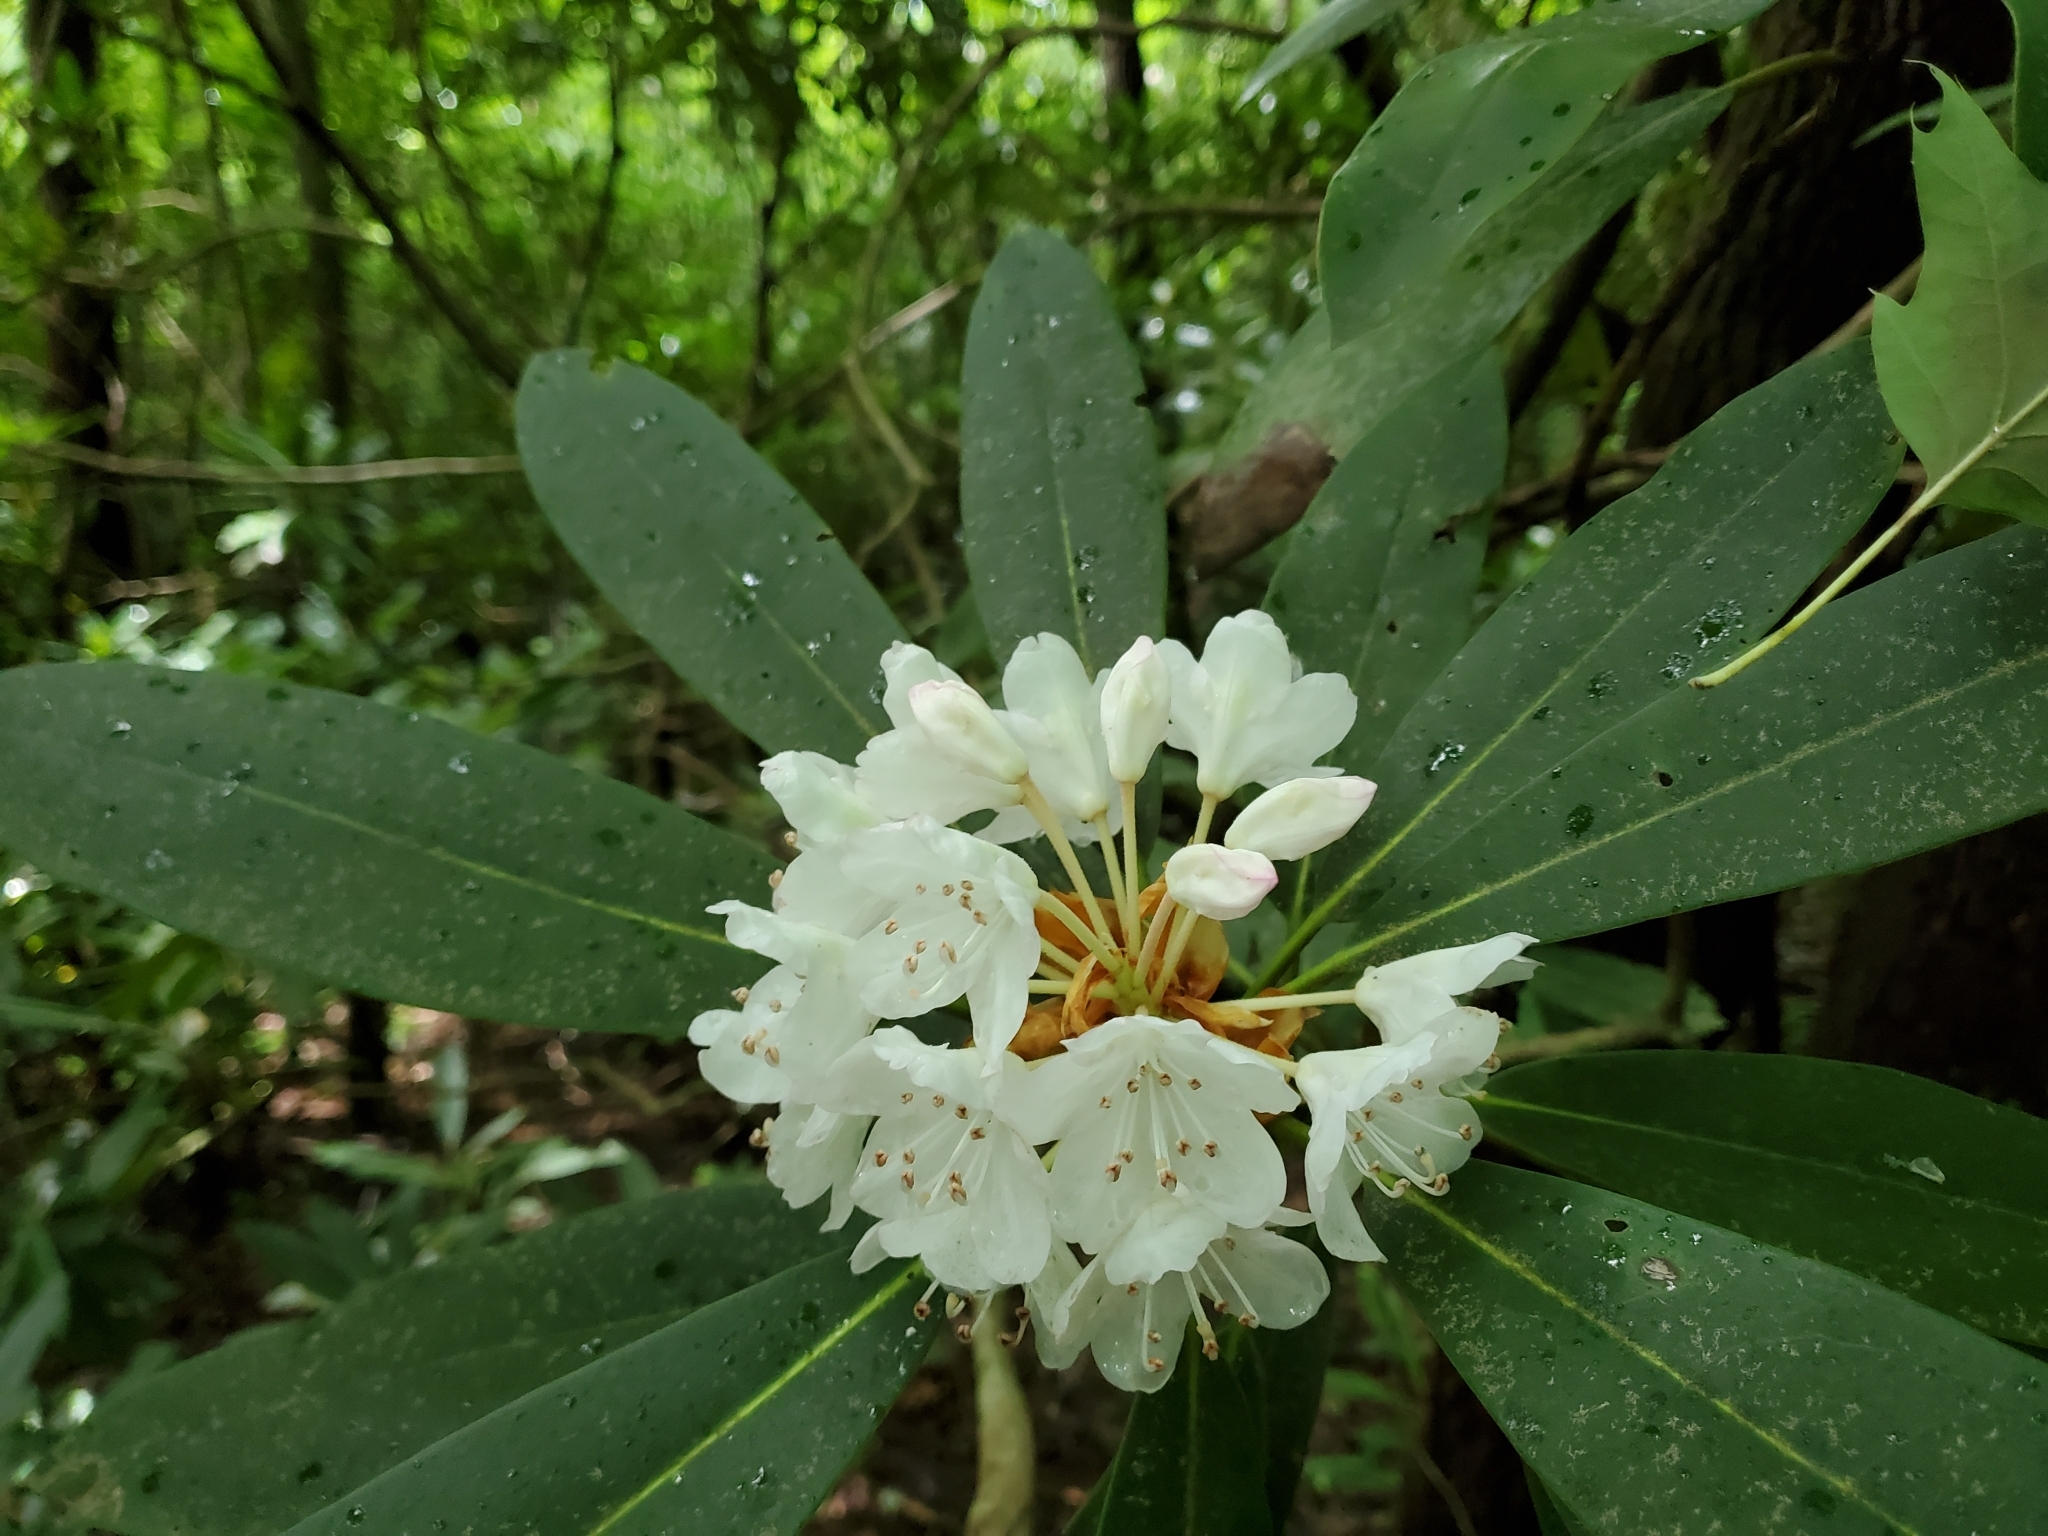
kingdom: Plantae
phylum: Tracheophyta
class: Magnoliopsida
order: Ericales
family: Ericaceae
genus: Rhododendron
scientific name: Rhododendron maximum
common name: Great rhododendron
